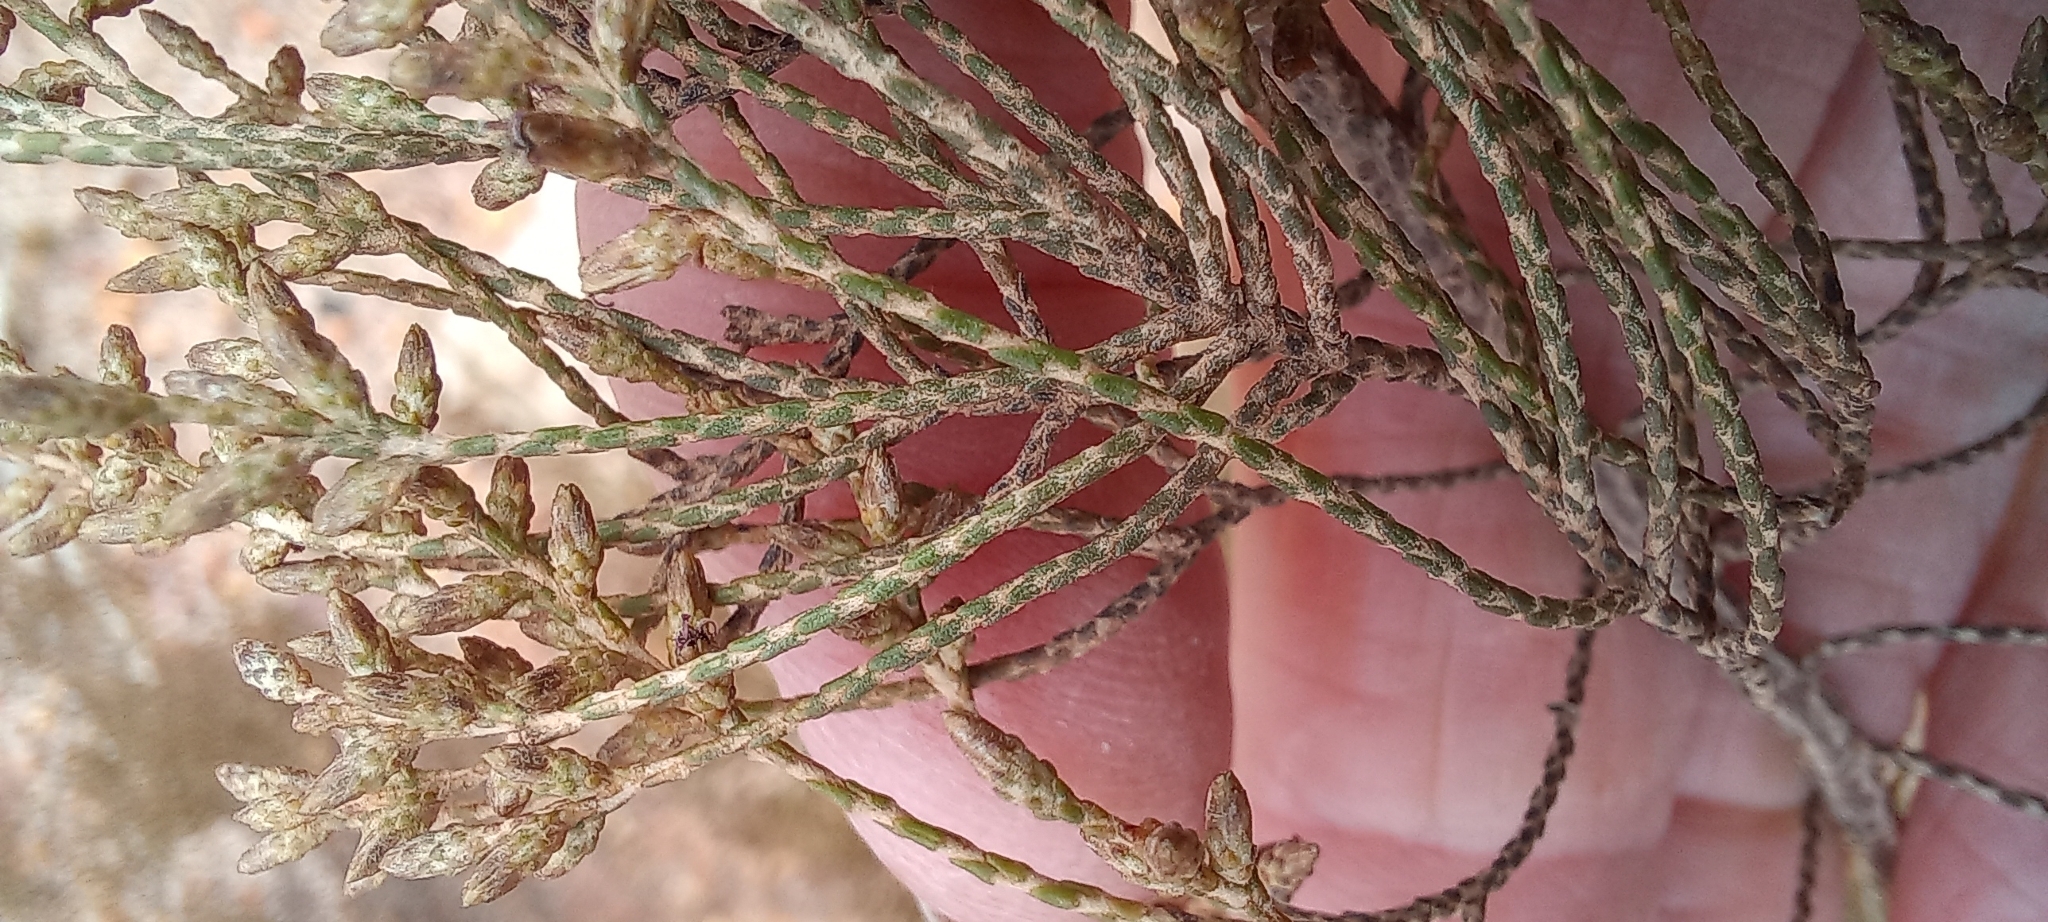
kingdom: Plantae
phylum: Tracheophyta
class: Magnoliopsida
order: Asterales
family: Asteraceae
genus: Dicerothamnus
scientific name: Dicerothamnus rhinocerotis
